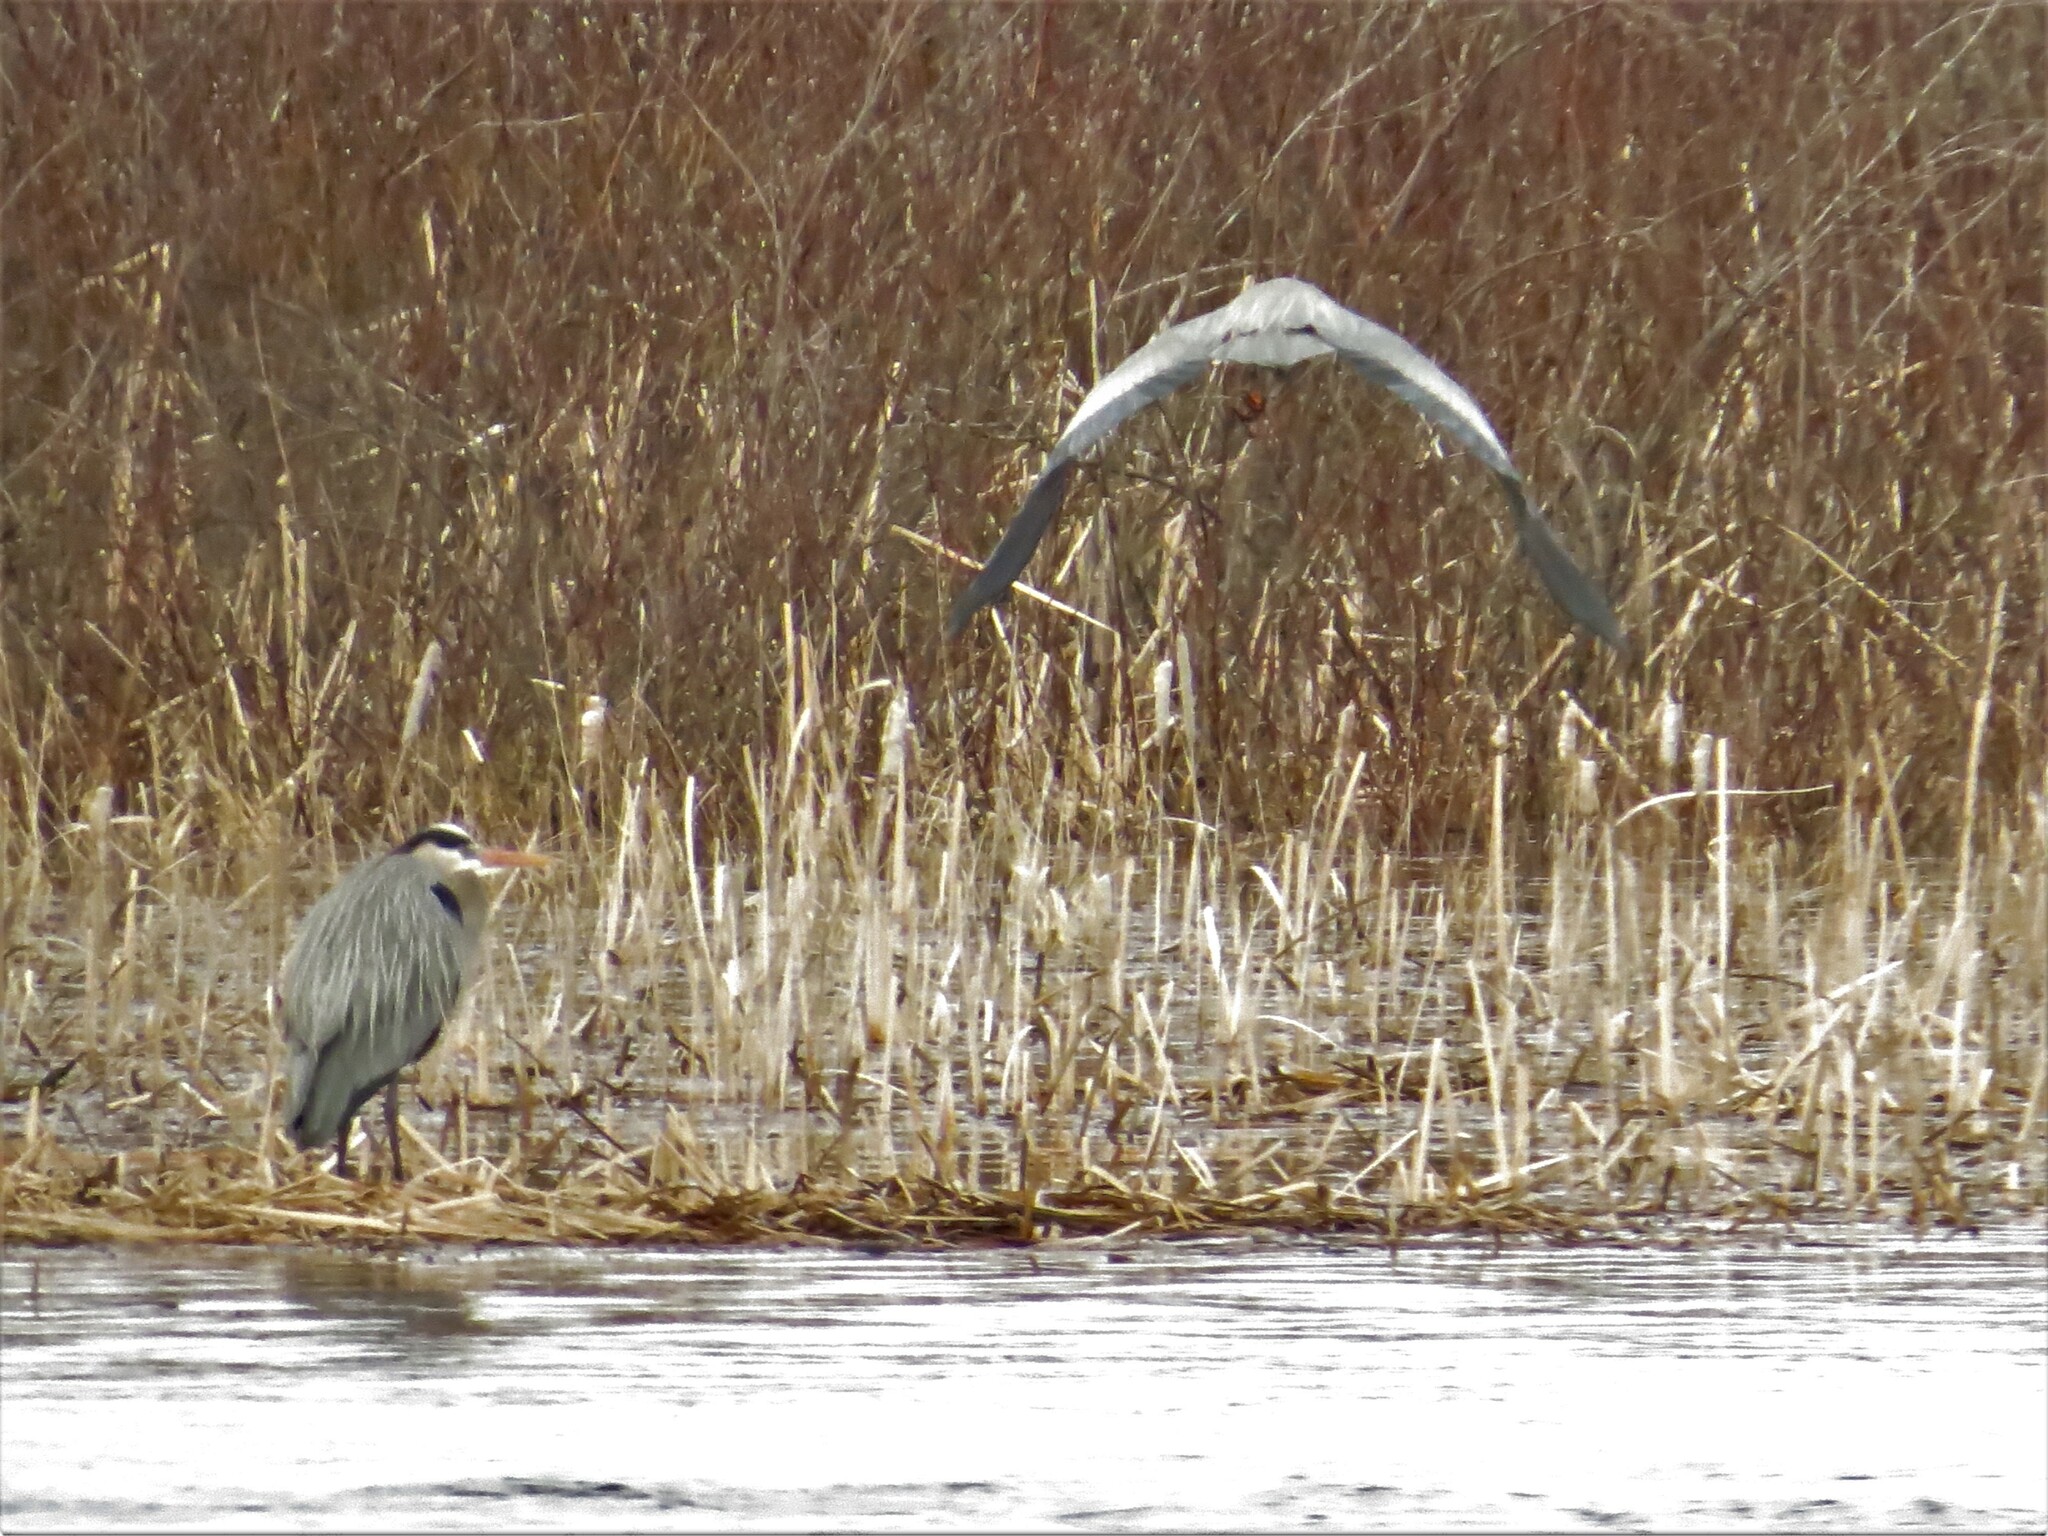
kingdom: Animalia
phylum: Chordata
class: Aves
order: Pelecaniformes
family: Ardeidae
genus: Ardea
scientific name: Ardea herodias
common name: Great blue heron
